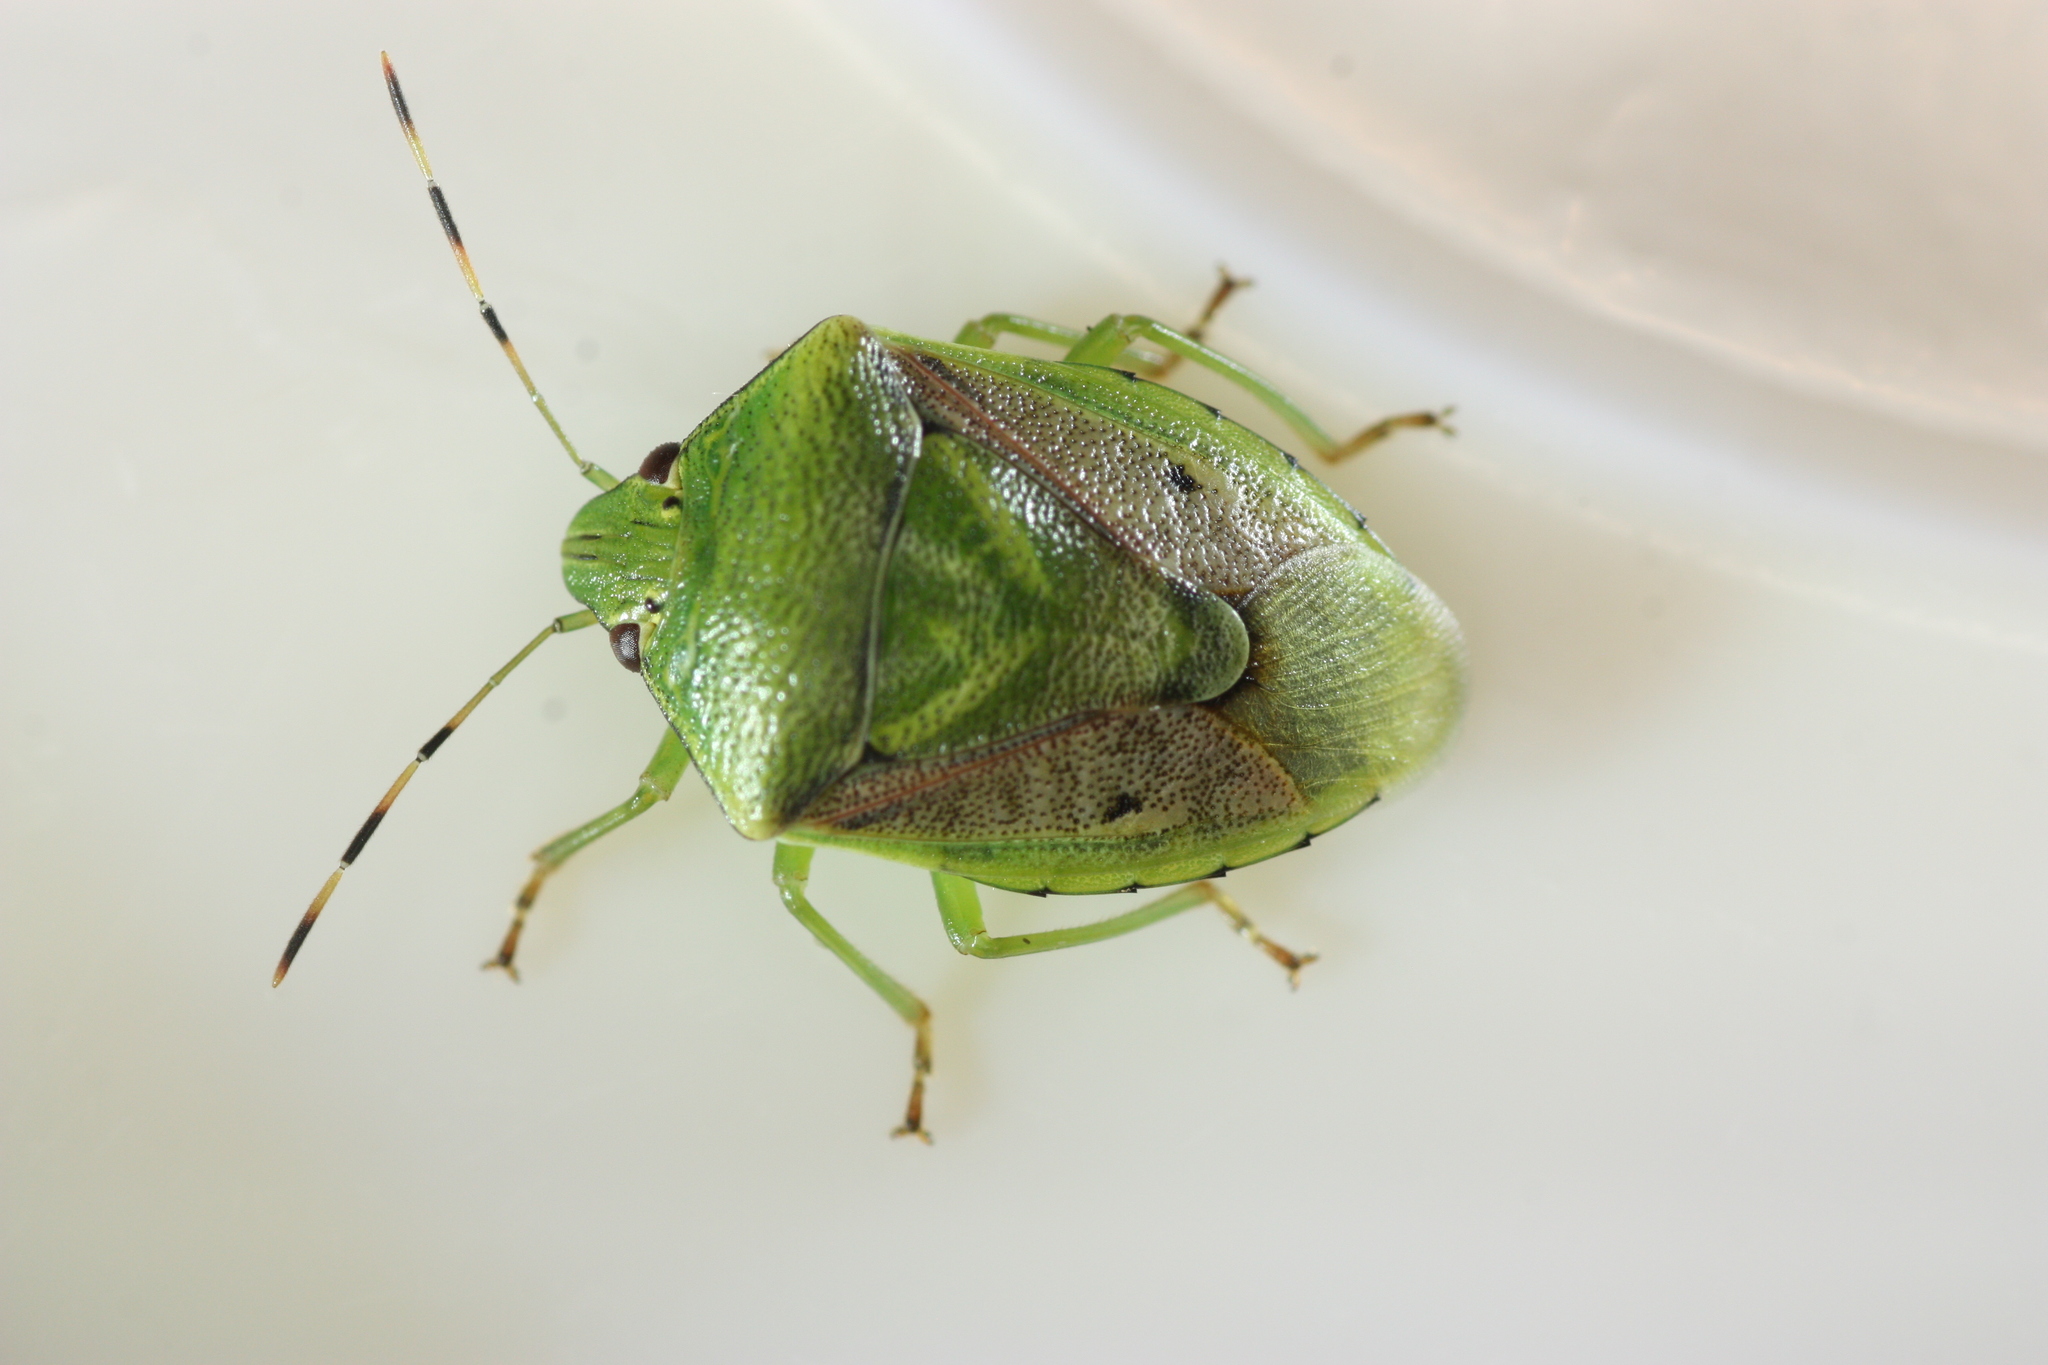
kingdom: Animalia
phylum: Arthropoda
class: Insecta
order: Hemiptera
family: Pentatomidae
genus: Plautia
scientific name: Plautia stali
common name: Stink bug
